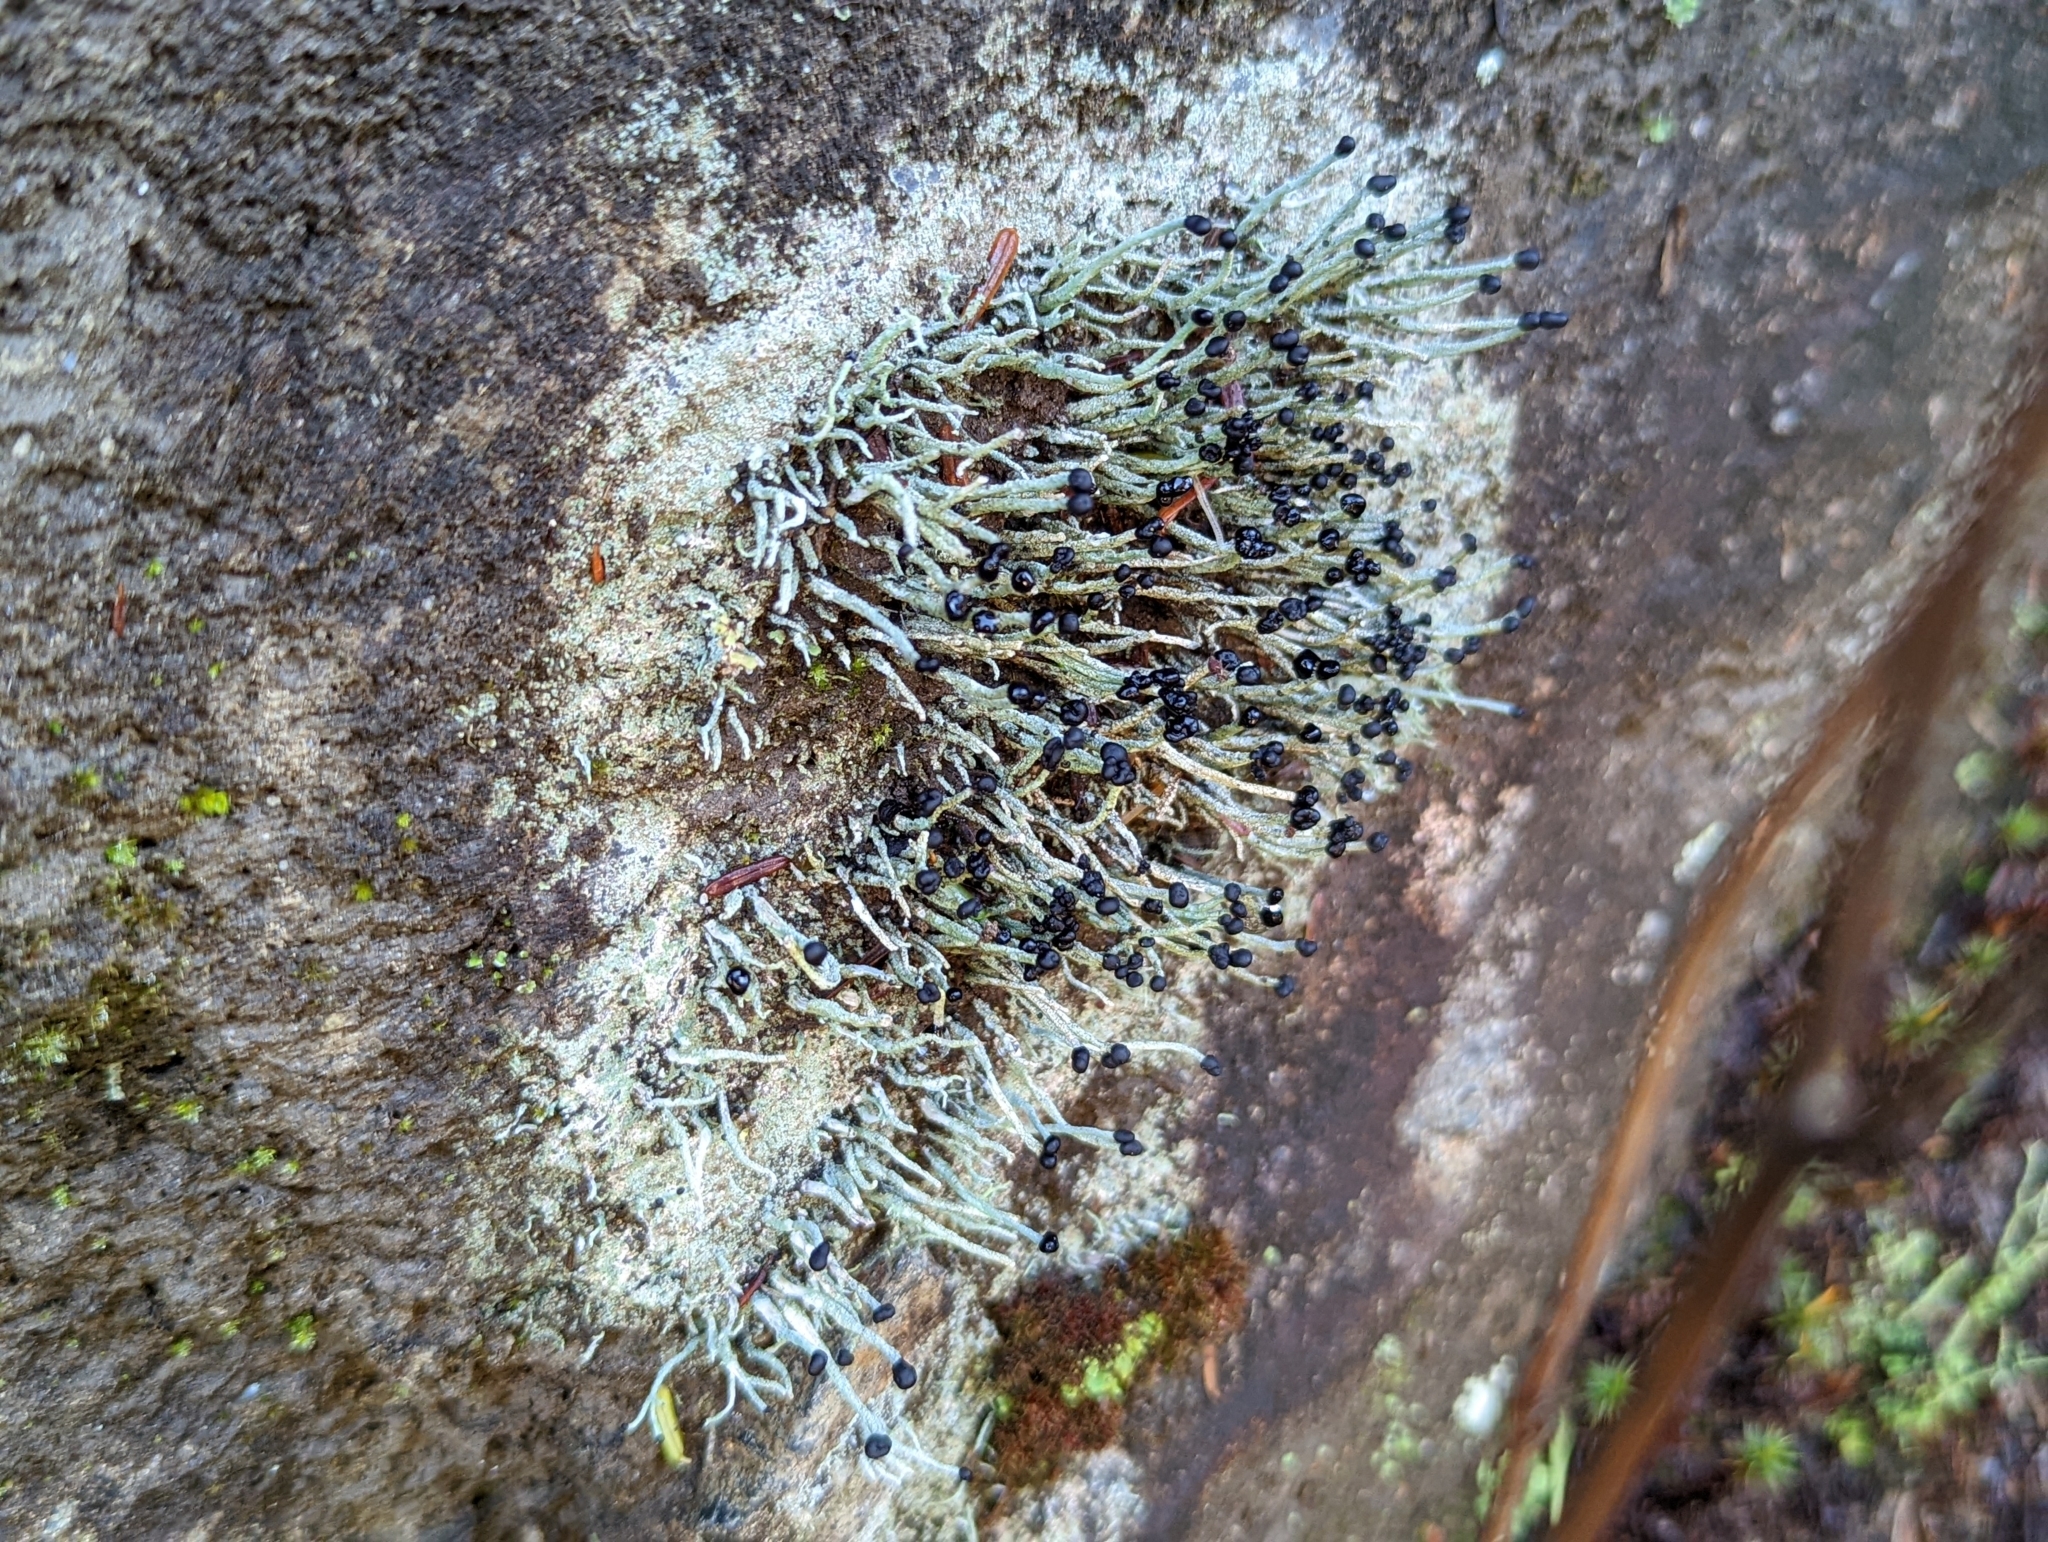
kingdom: Fungi
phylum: Ascomycota
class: Lecanoromycetes
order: Lecanorales
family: Cladoniaceae
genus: Pilophorus
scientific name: Pilophorus acicularis
